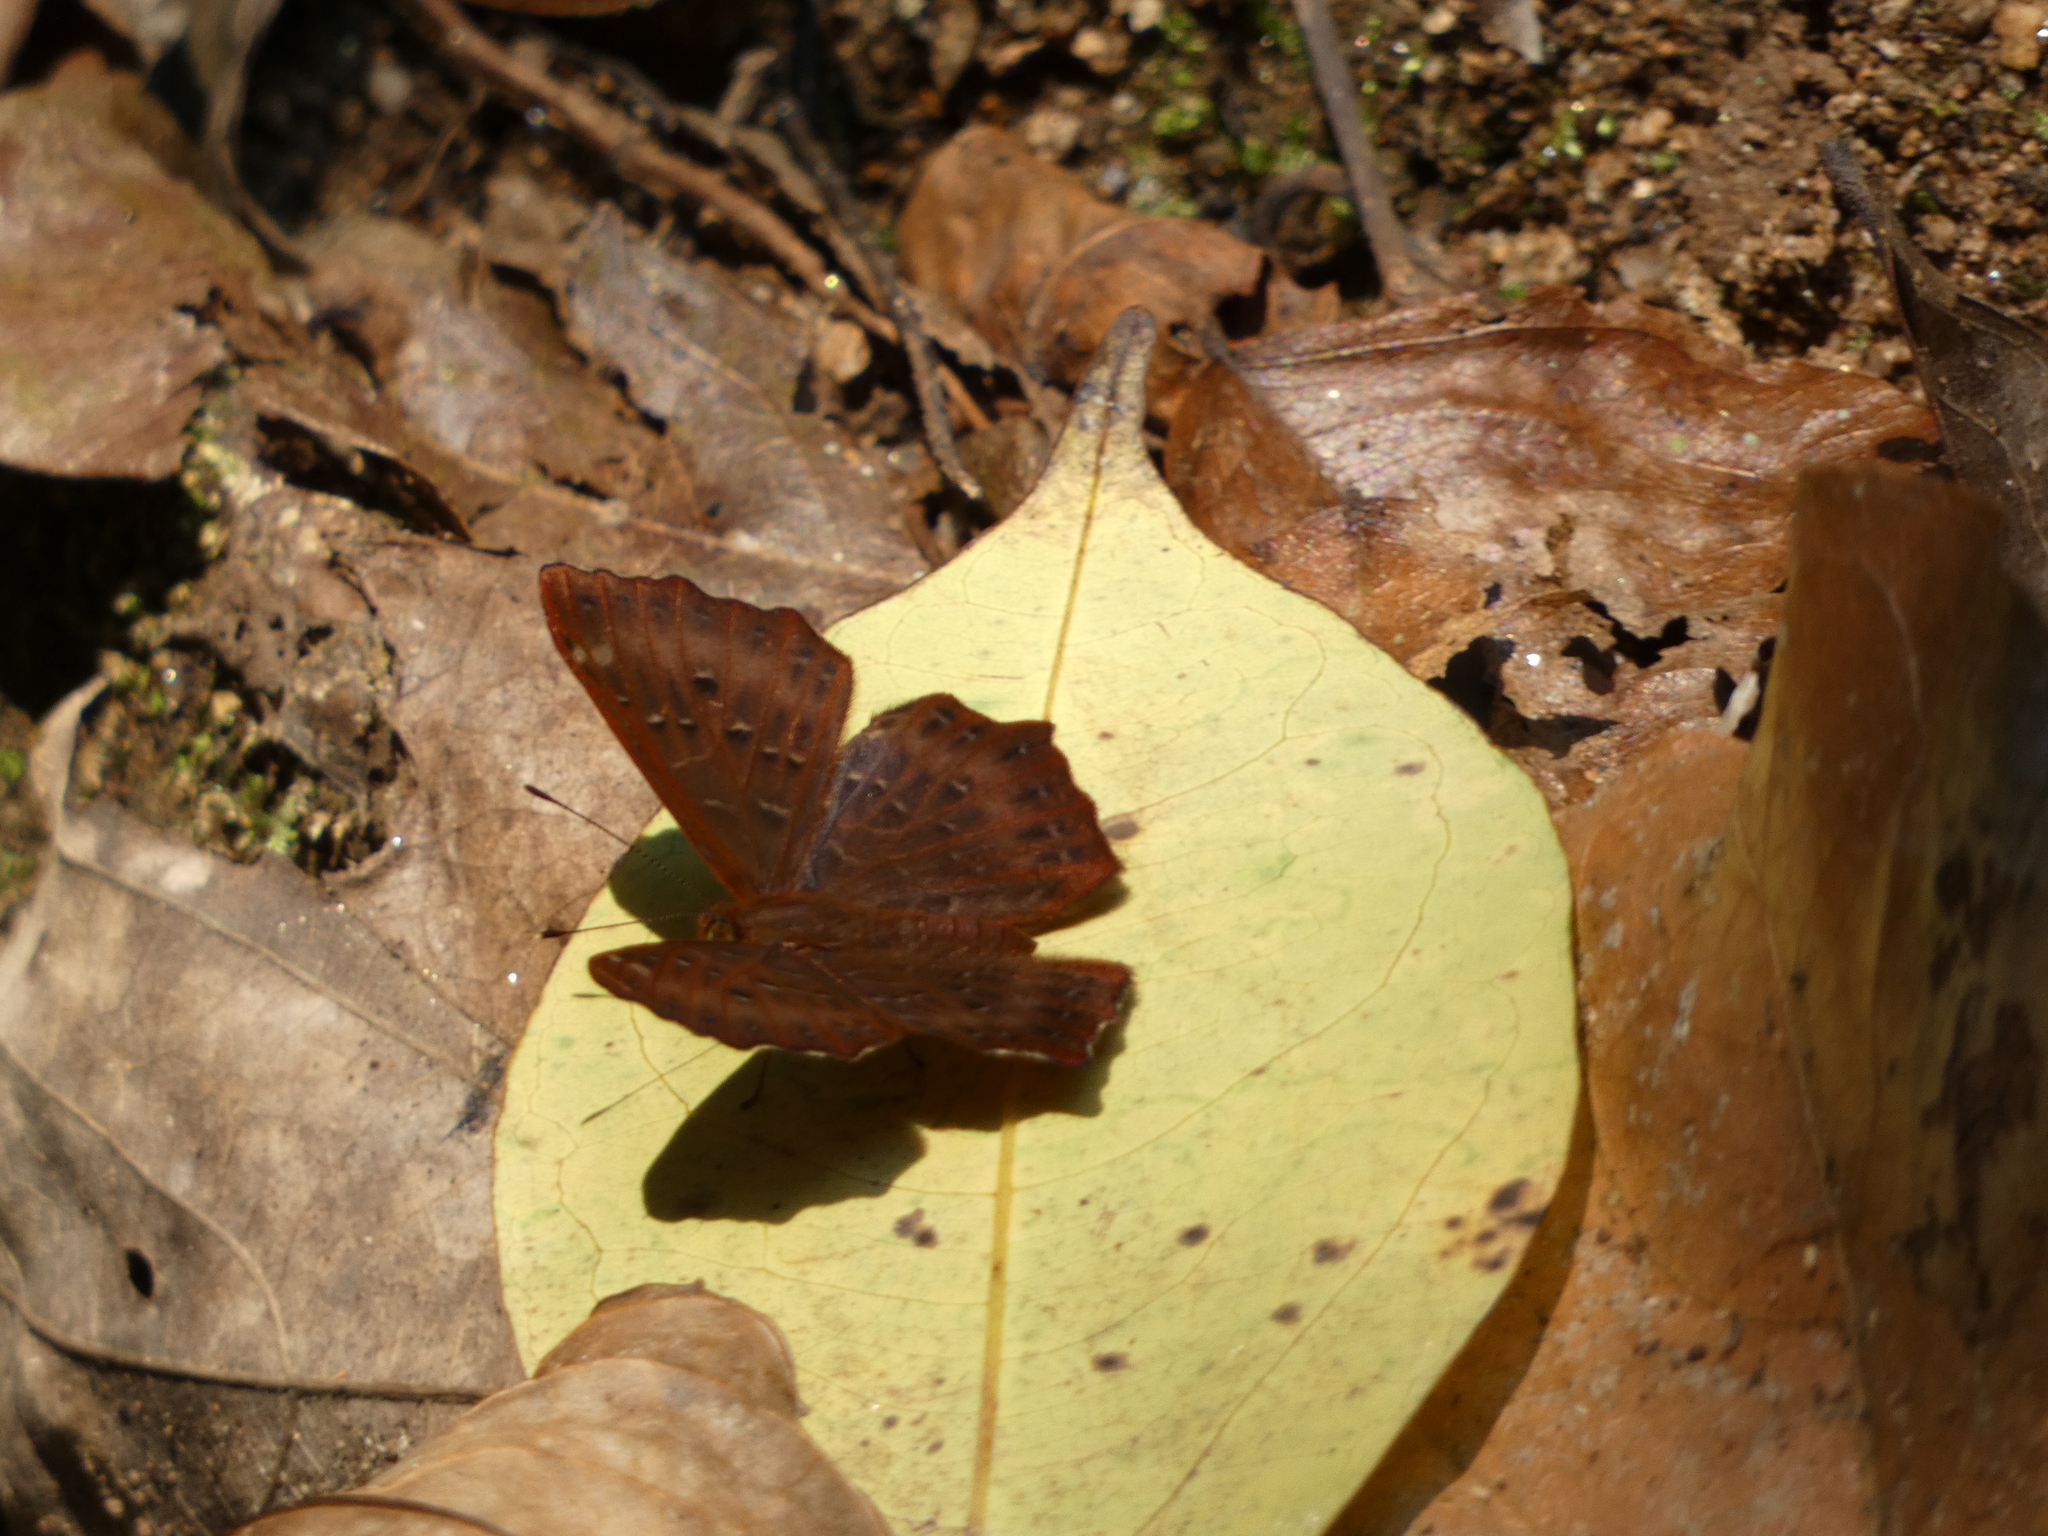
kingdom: Animalia
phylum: Arthropoda
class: Insecta
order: Lepidoptera
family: Riodinidae
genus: Zemeros
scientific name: Zemeros flegyas
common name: Punchinello
